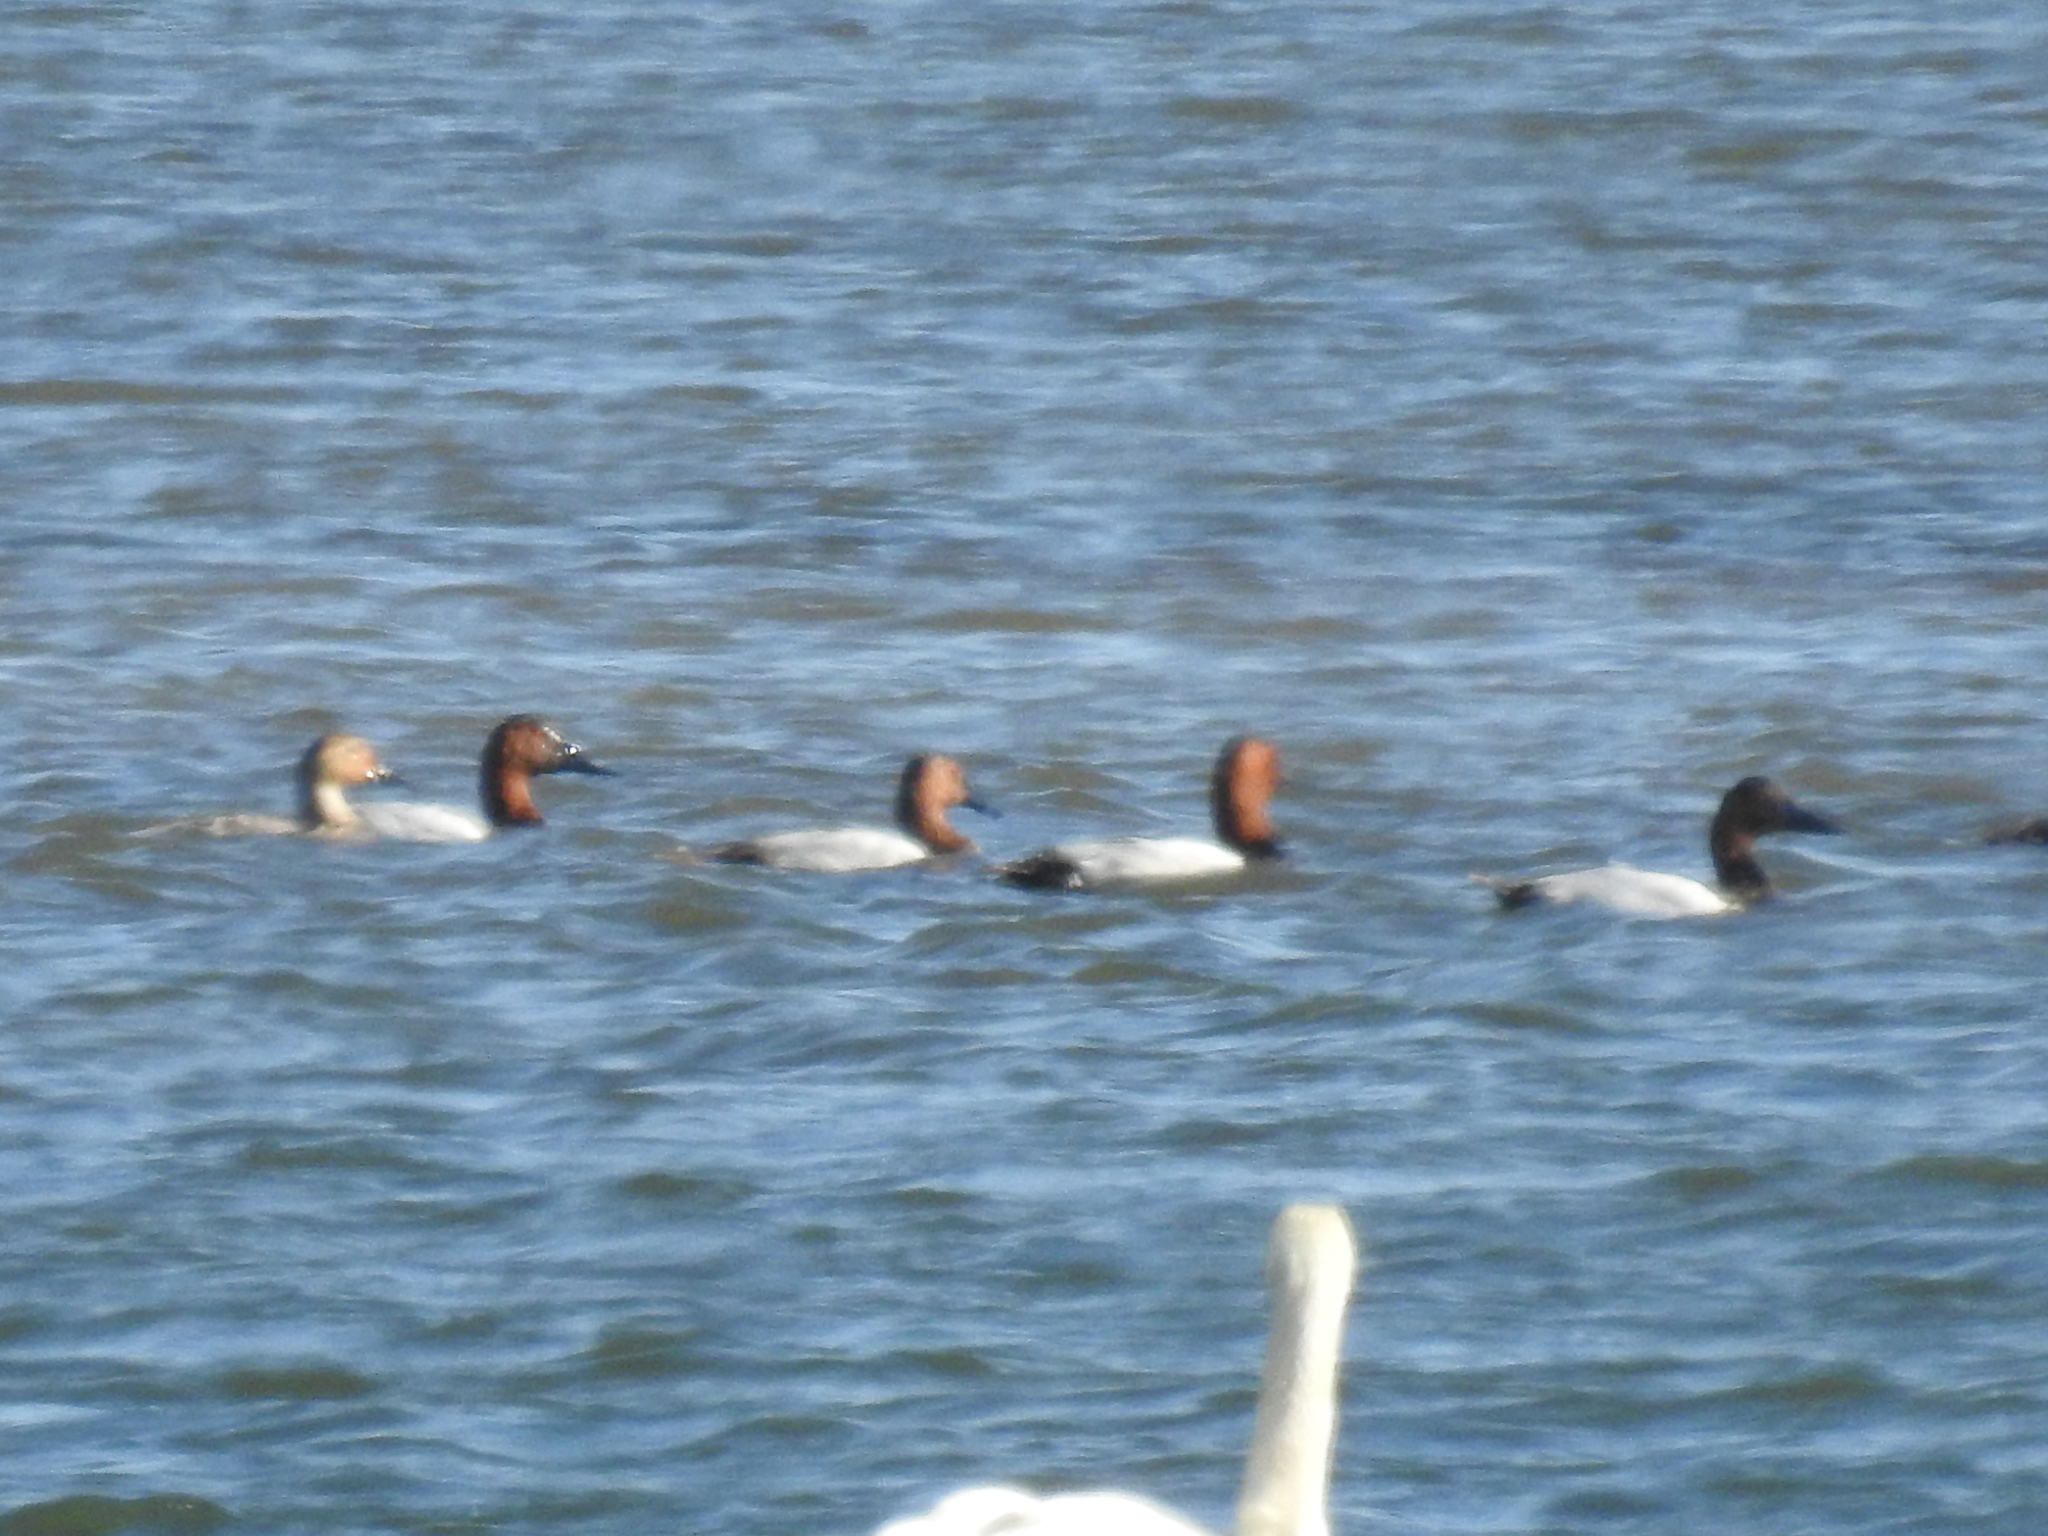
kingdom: Animalia
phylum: Chordata
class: Aves
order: Anseriformes
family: Anatidae
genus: Aythya
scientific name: Aythya valisineria
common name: Canvasback
